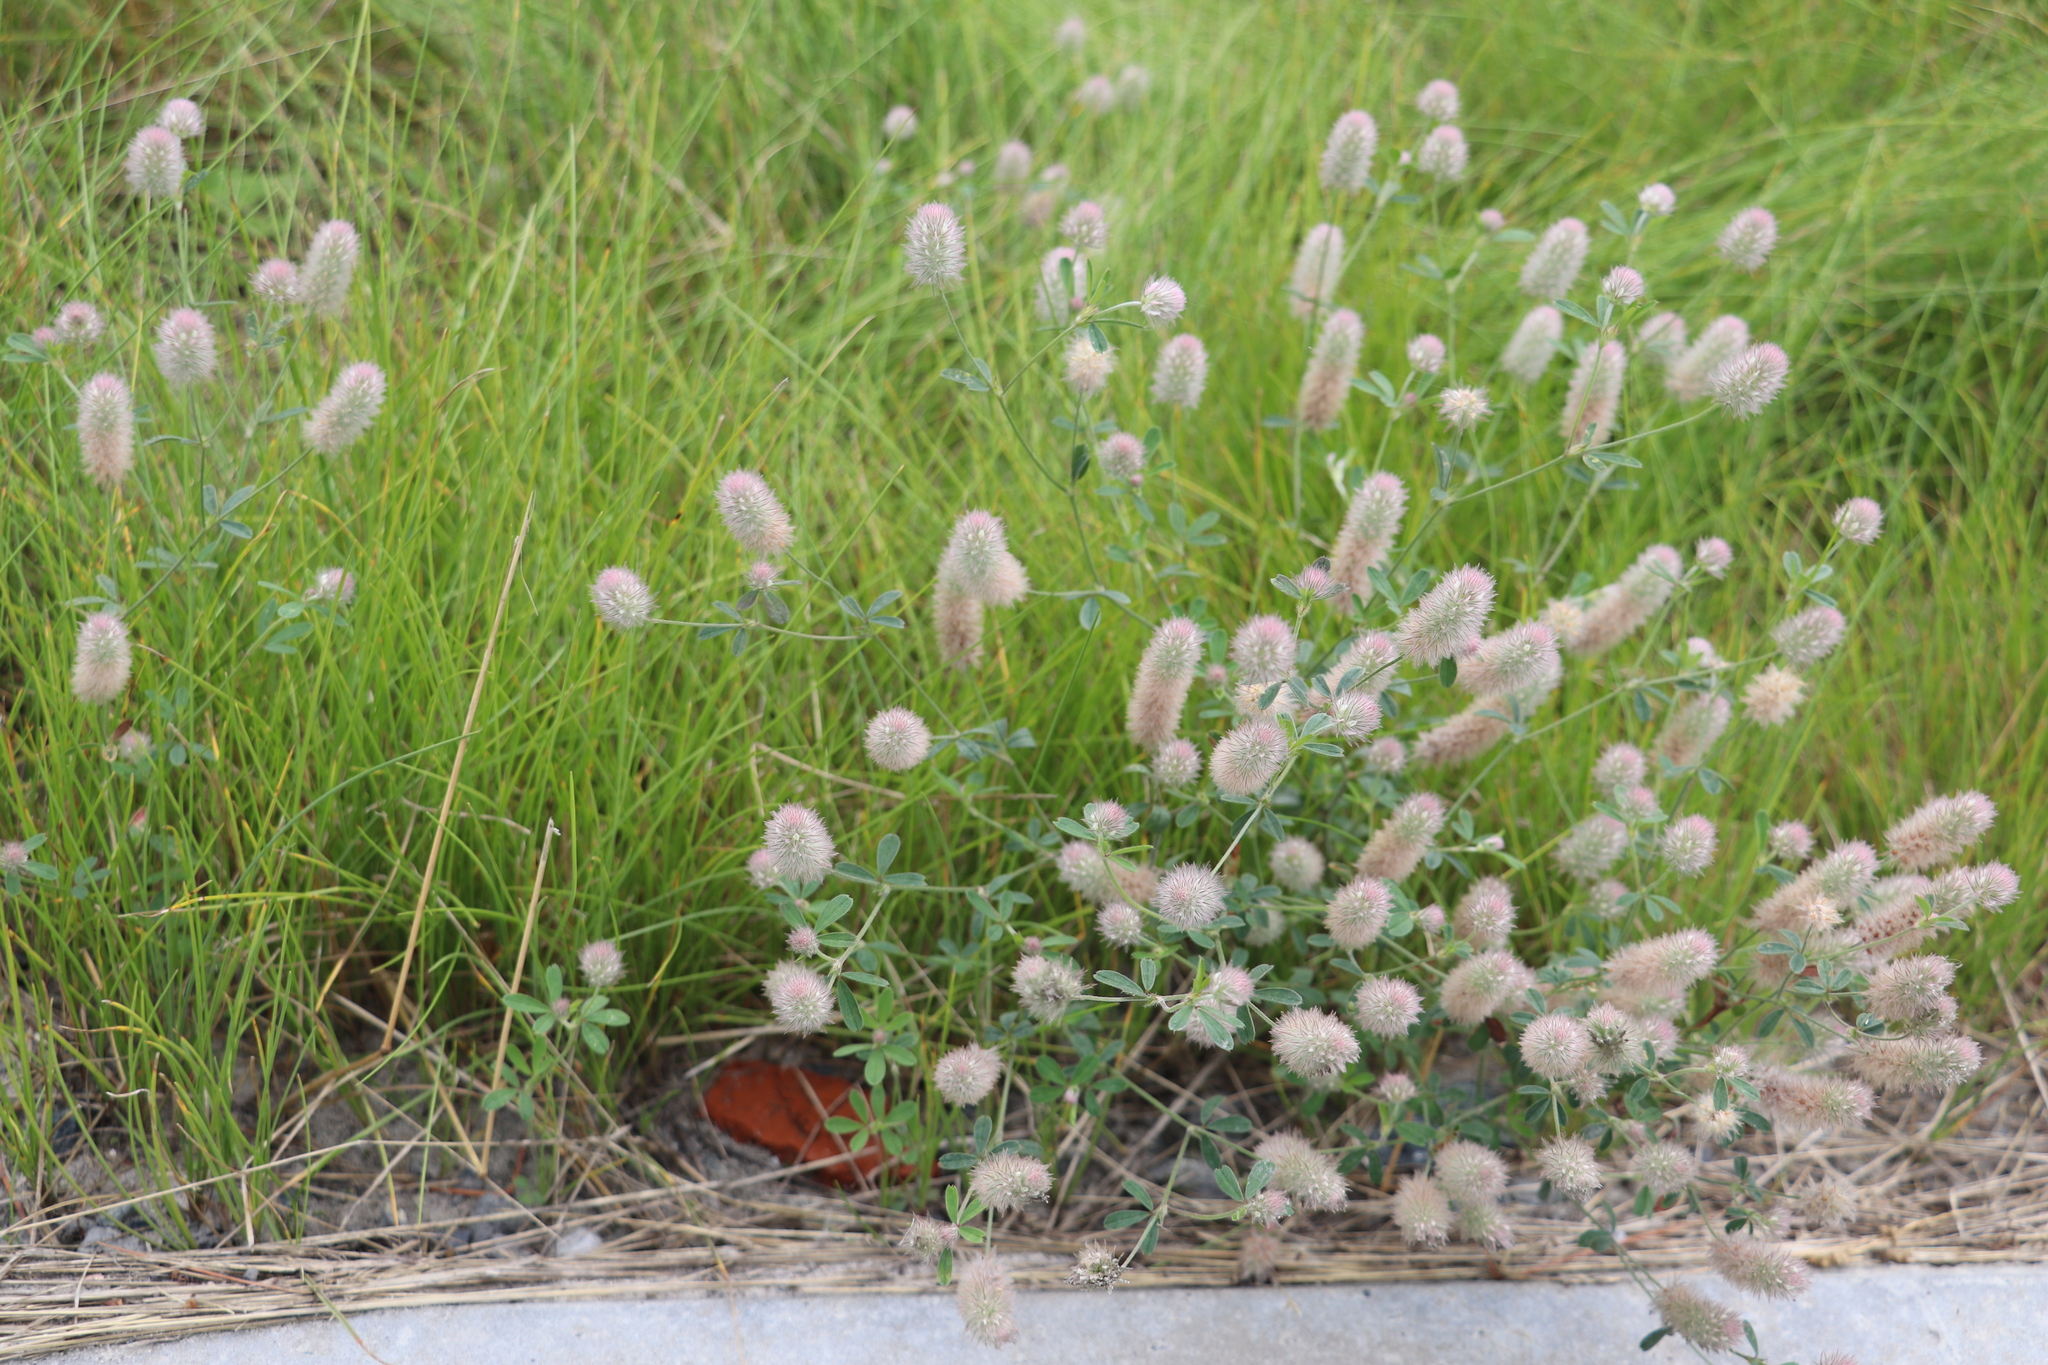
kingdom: Plantae
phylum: Tracheophyta
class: Magnoliopsida
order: Fabales
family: Fabaceae
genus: Trifolium
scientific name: Trifolium arvense
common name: Hare's-foot clover
